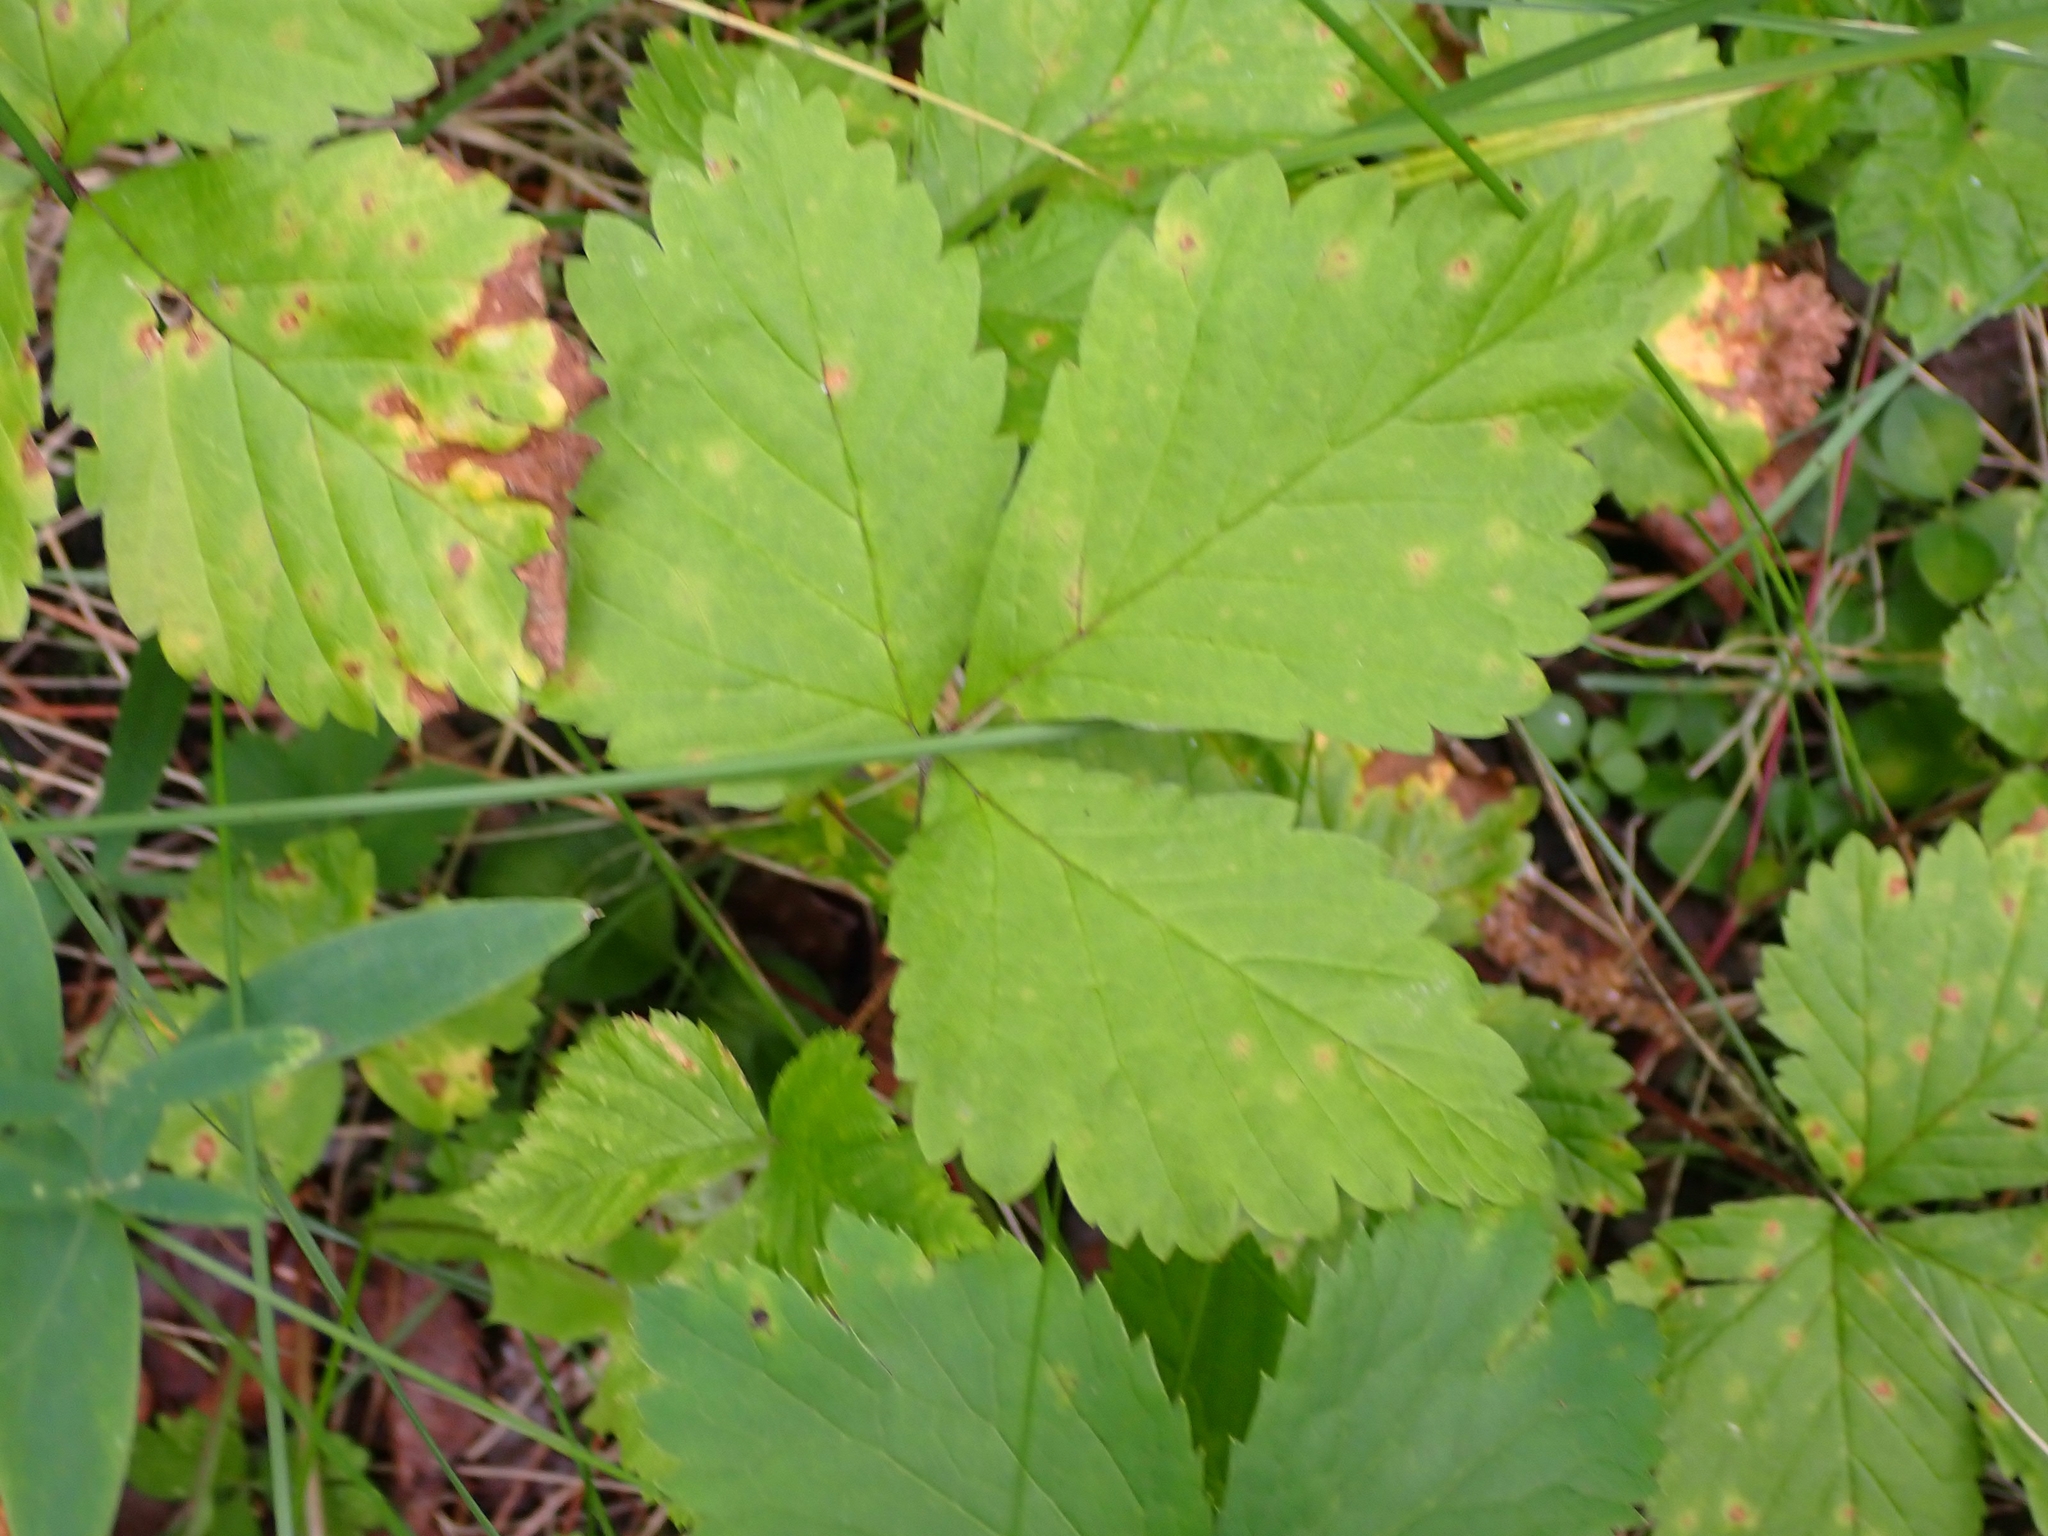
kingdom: Plantae
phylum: Tracheophyta
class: Magnoliopsida
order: Rosales
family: Rosaceae
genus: Rubus
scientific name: Rubus pubescens
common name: Dwarf raspberry
